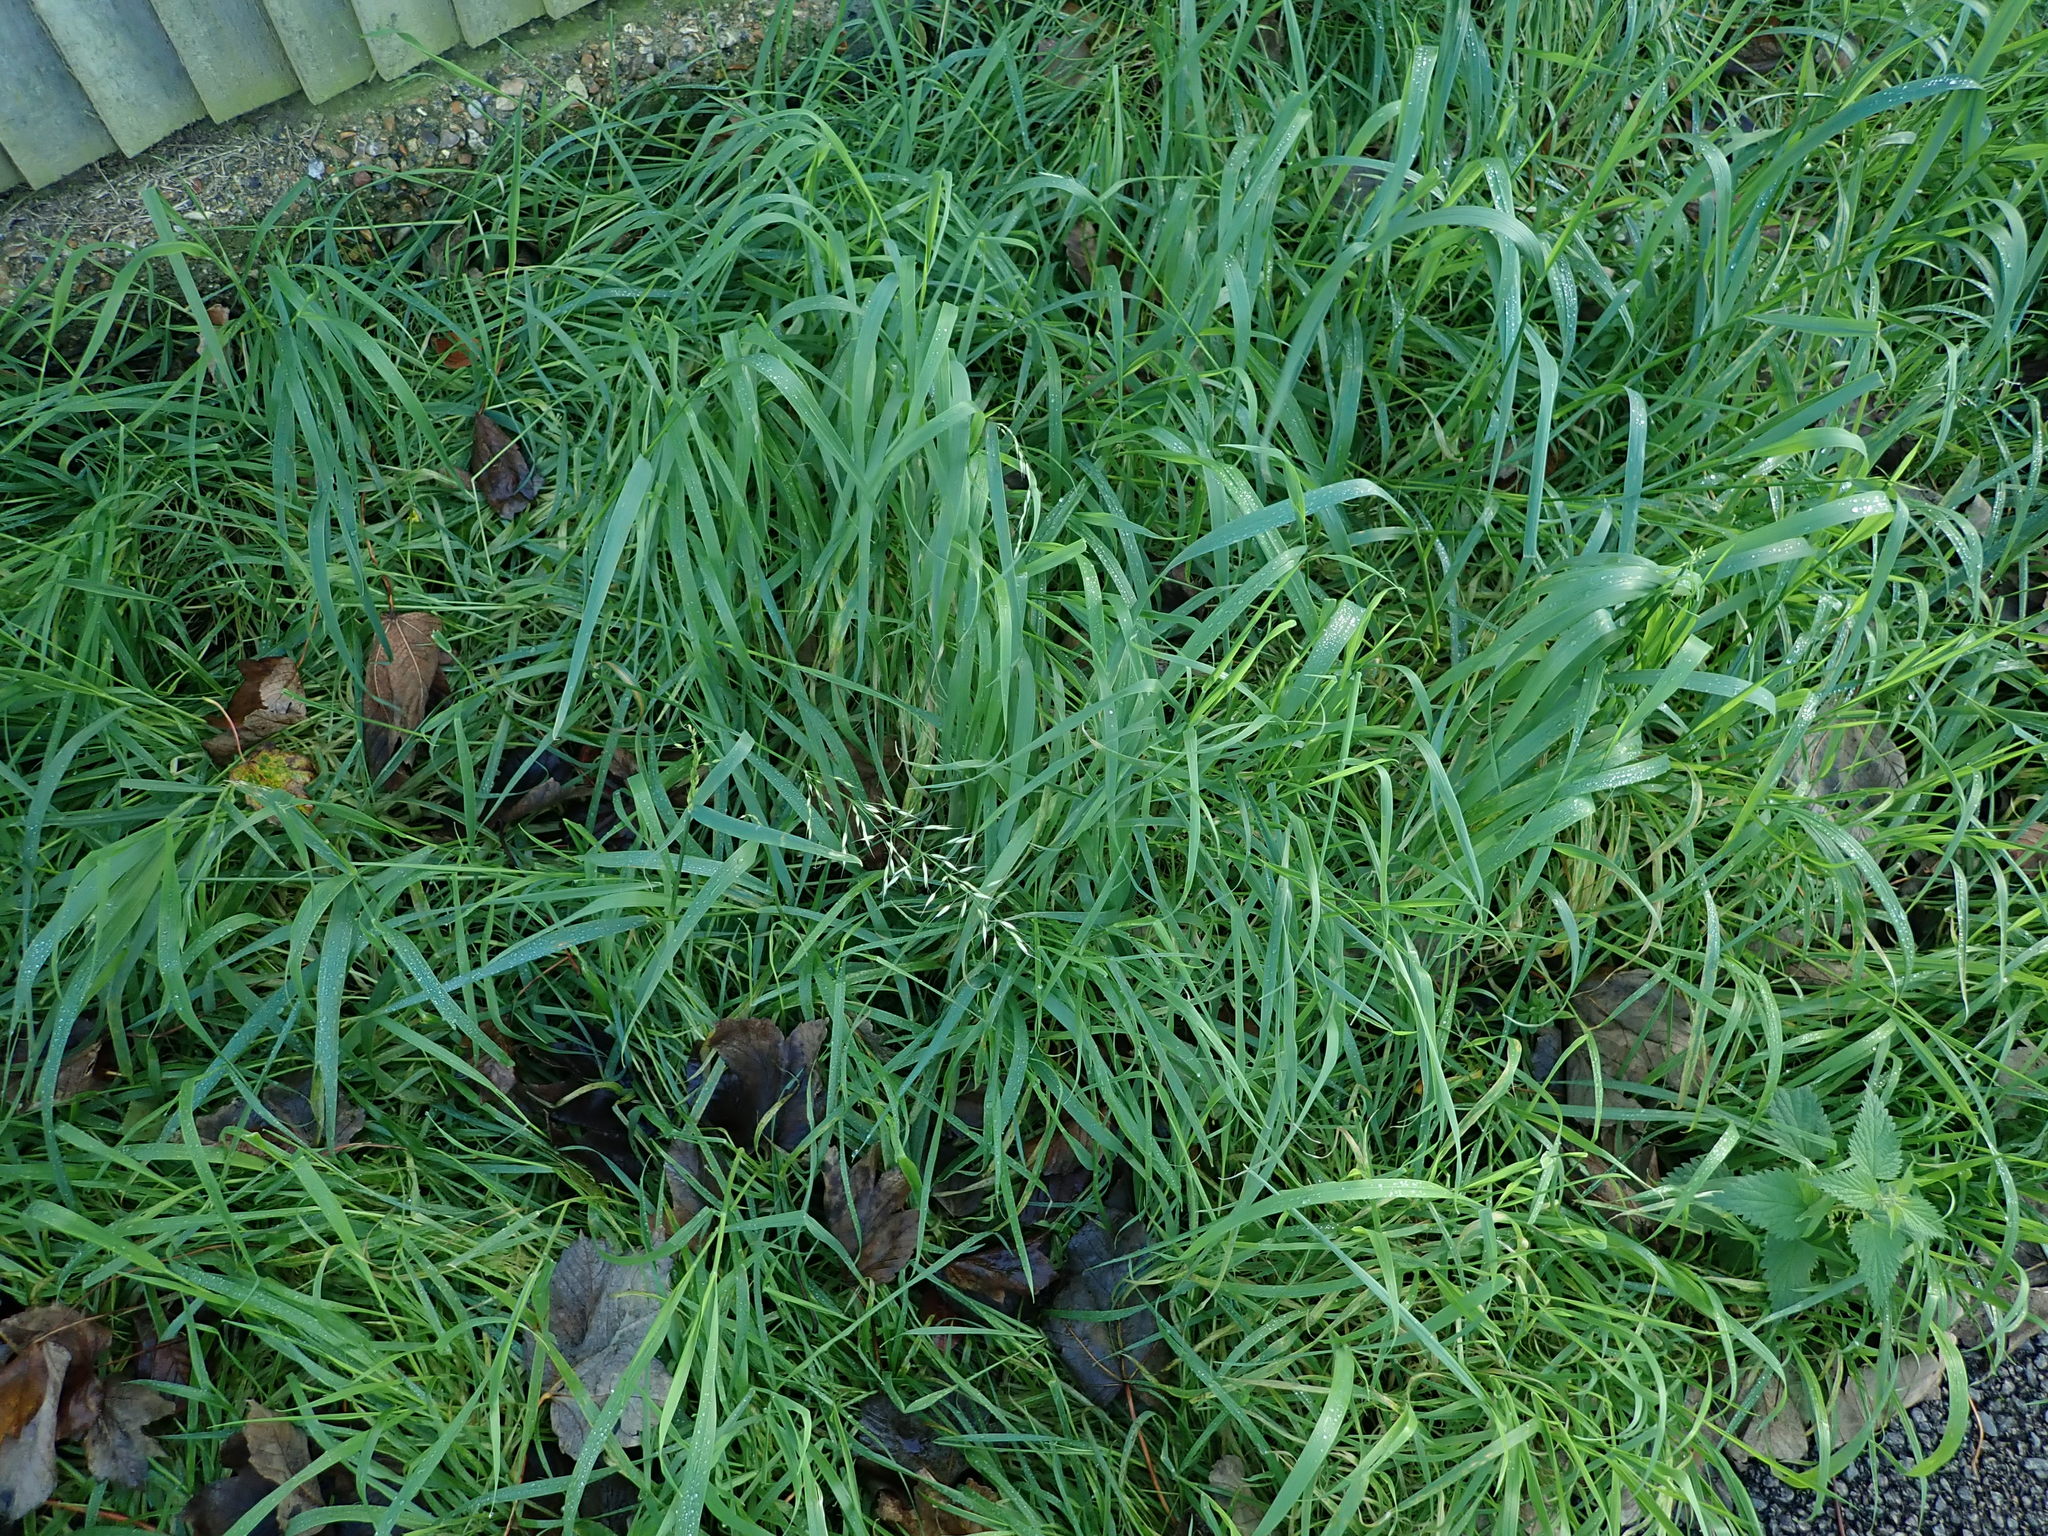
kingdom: Plantae
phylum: Tracheophyta
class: Liliopsida
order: Poales
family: Poaceae
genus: Arrhenatherum
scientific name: Arrhenatherum elatius
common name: Tall oatgrass
